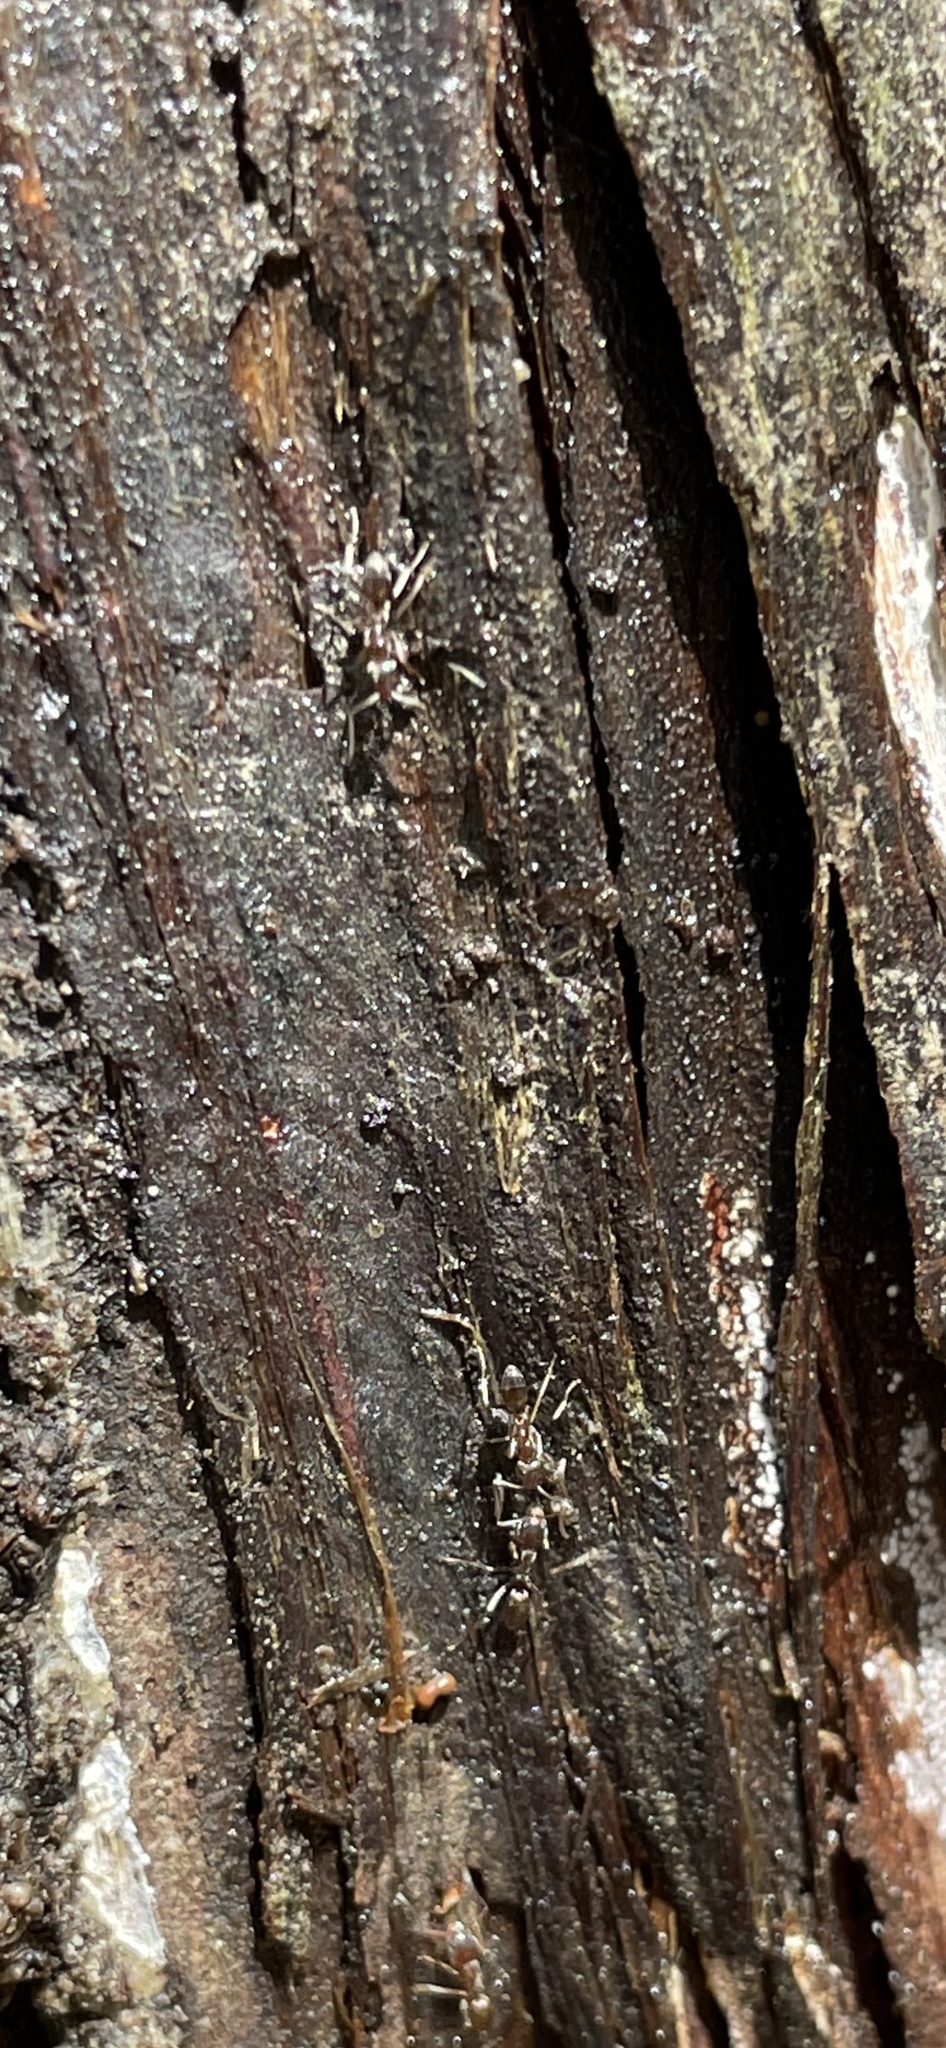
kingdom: Animalia
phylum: Arthropoda
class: Insecta
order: Hymenoptera
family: Formicidae
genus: Linepithema
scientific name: Linepithema humile
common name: Argentine ant
